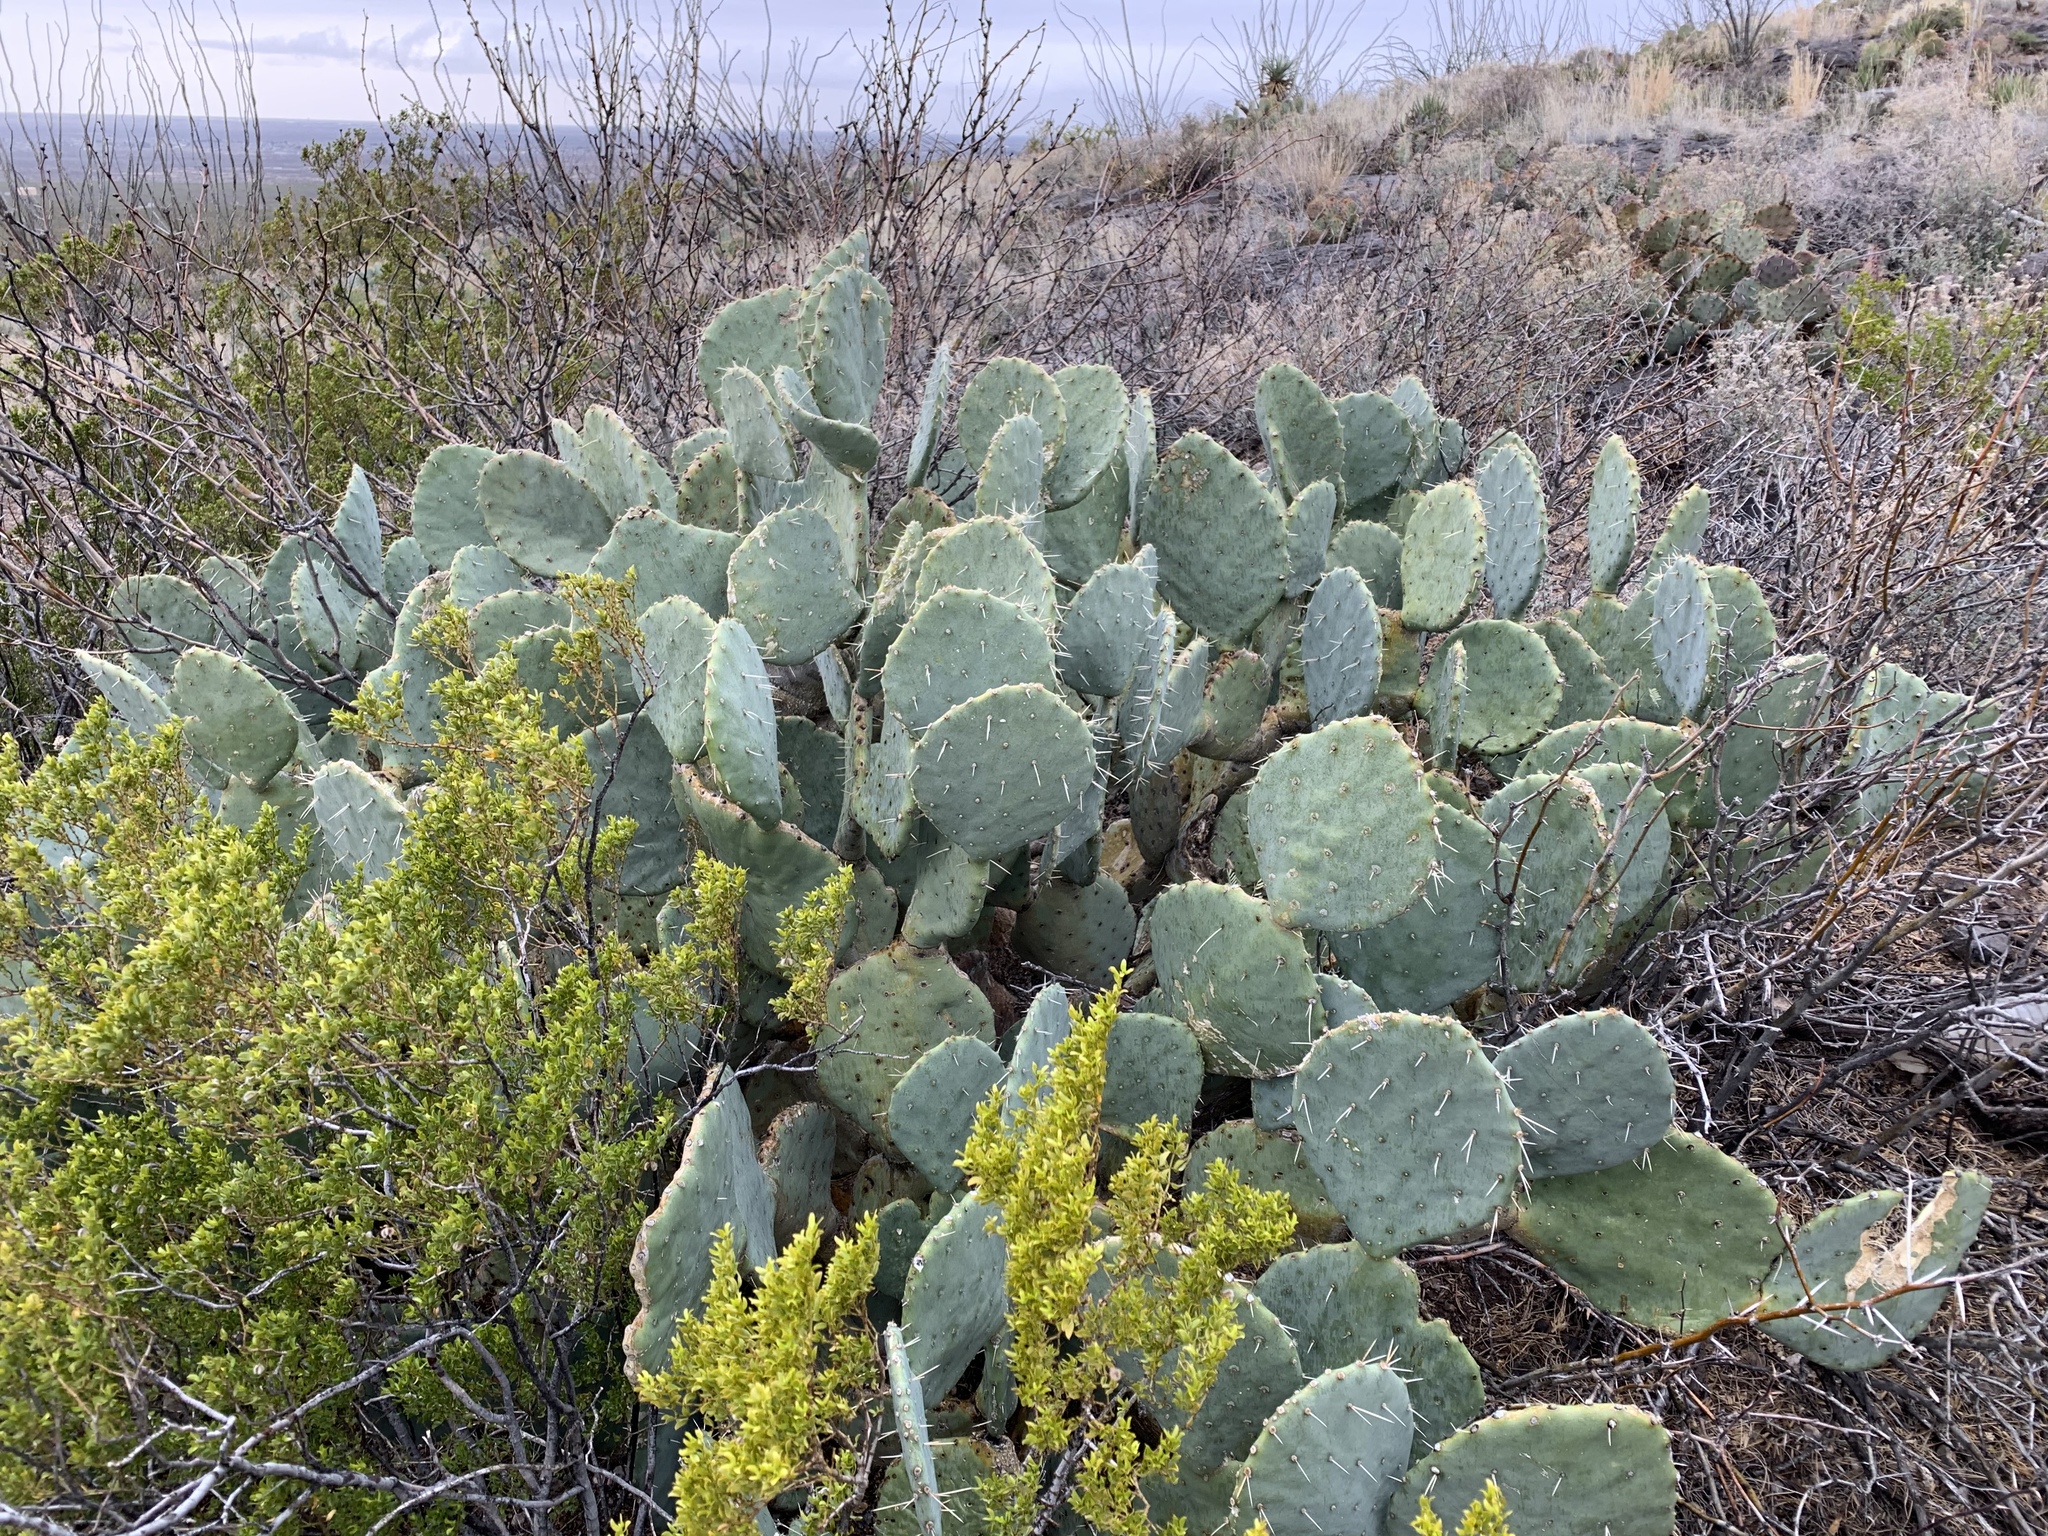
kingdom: Plantae
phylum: Tracheophyta
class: Magnoliopsida
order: Caryophyllales
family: Cactaceae
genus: Opuntia
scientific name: Opuntia orbiculata
